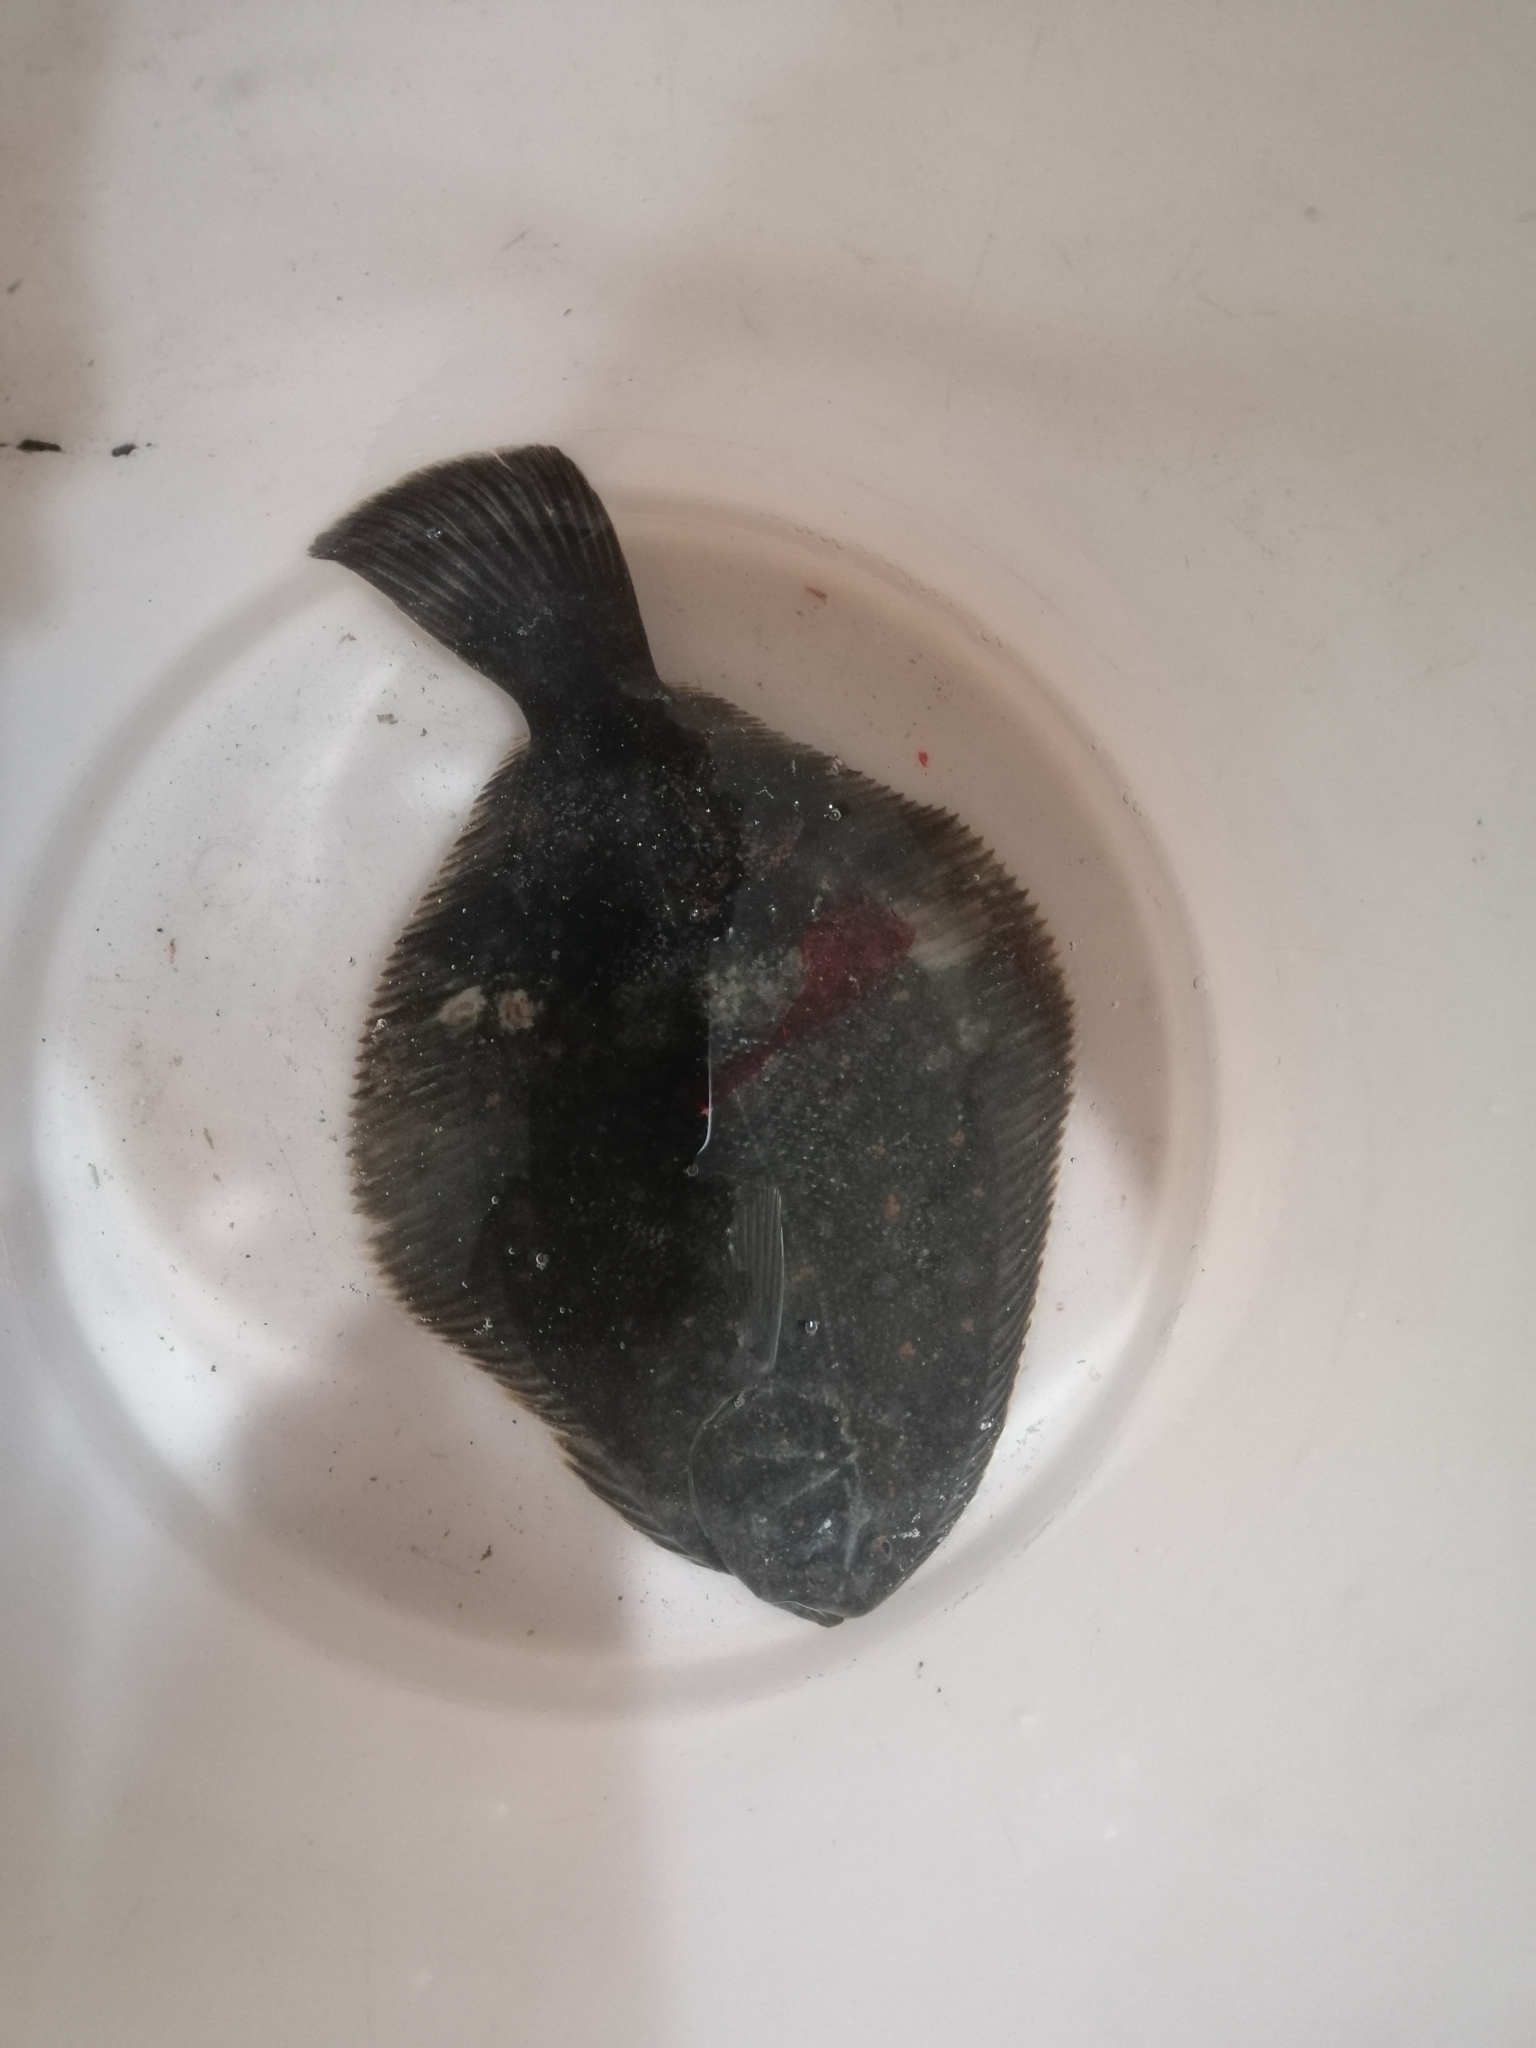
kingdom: Animalia
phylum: Chordata
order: Pleuronectiformes
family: Pleuronectidae
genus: Rhombosolea
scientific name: Rhombosolea retiaria
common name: Black flounder
